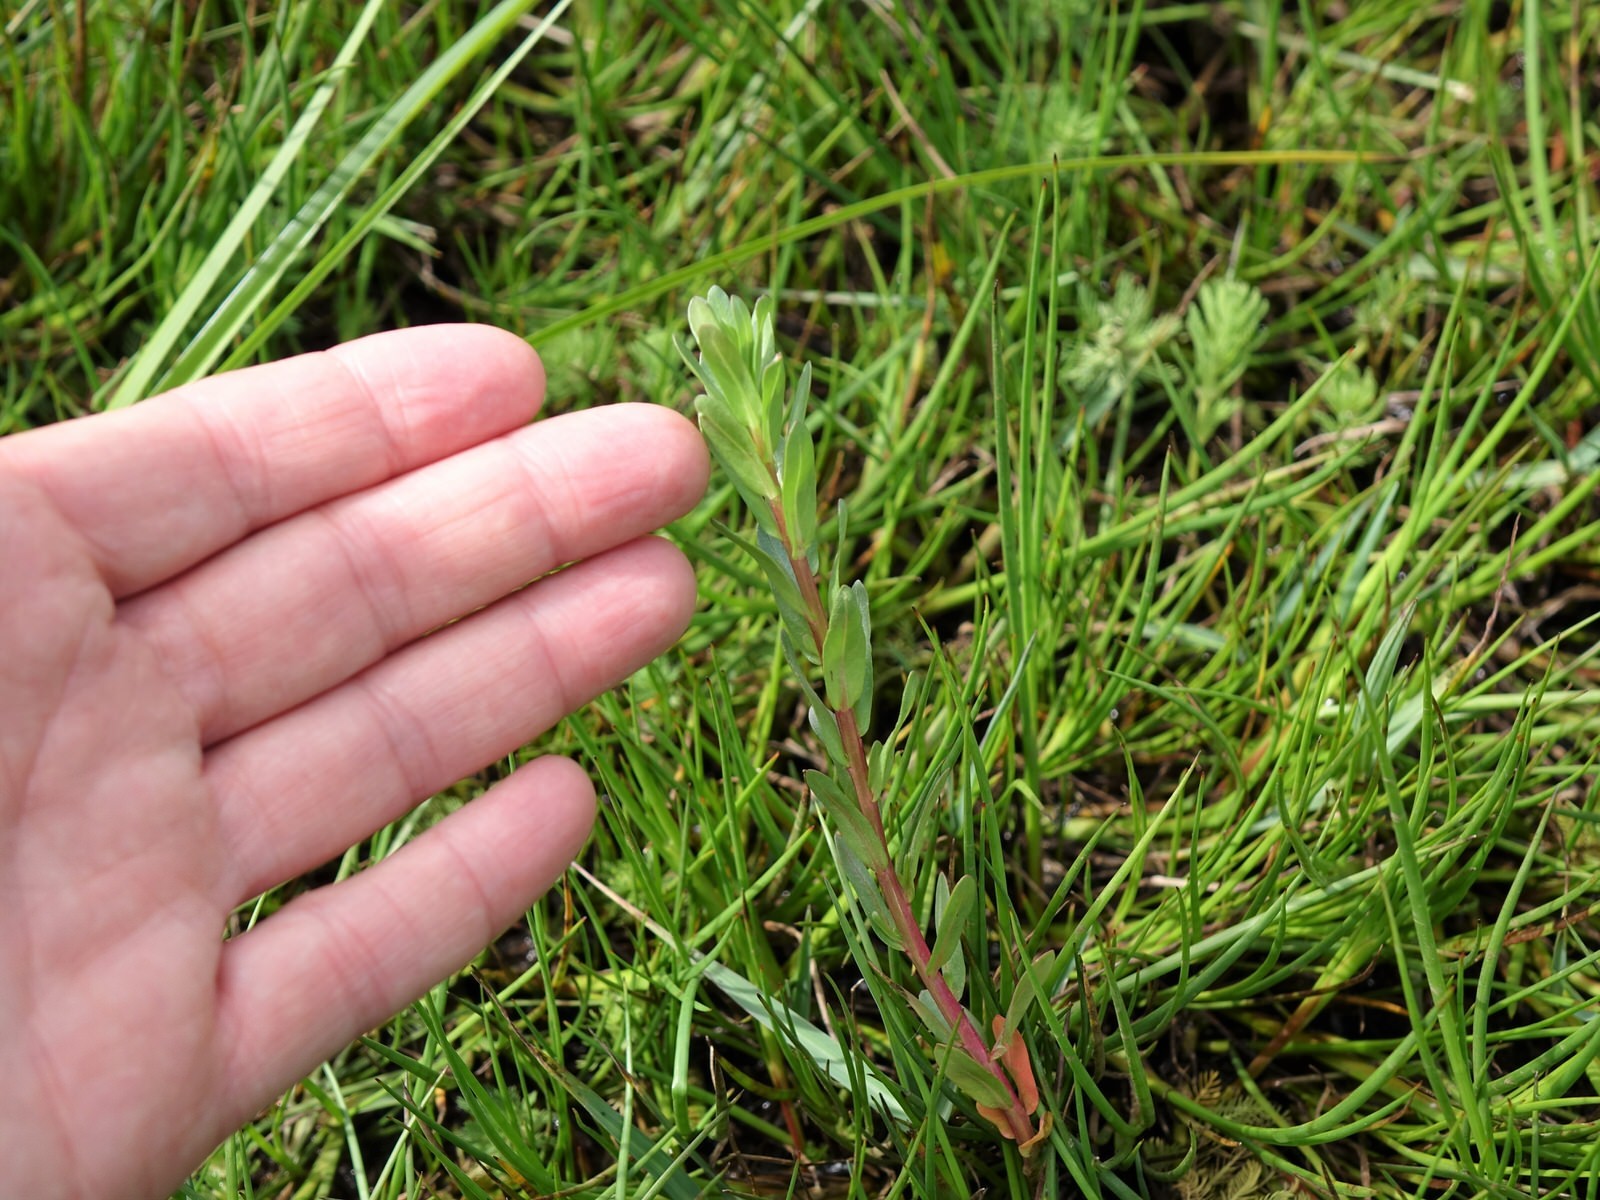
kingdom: Plantae
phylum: Tracheophyta
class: Magnoliopsida
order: Myrtales
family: Lythraceae
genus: Lythrum
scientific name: Lythrum hyssopifolia
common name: Grass-poly
